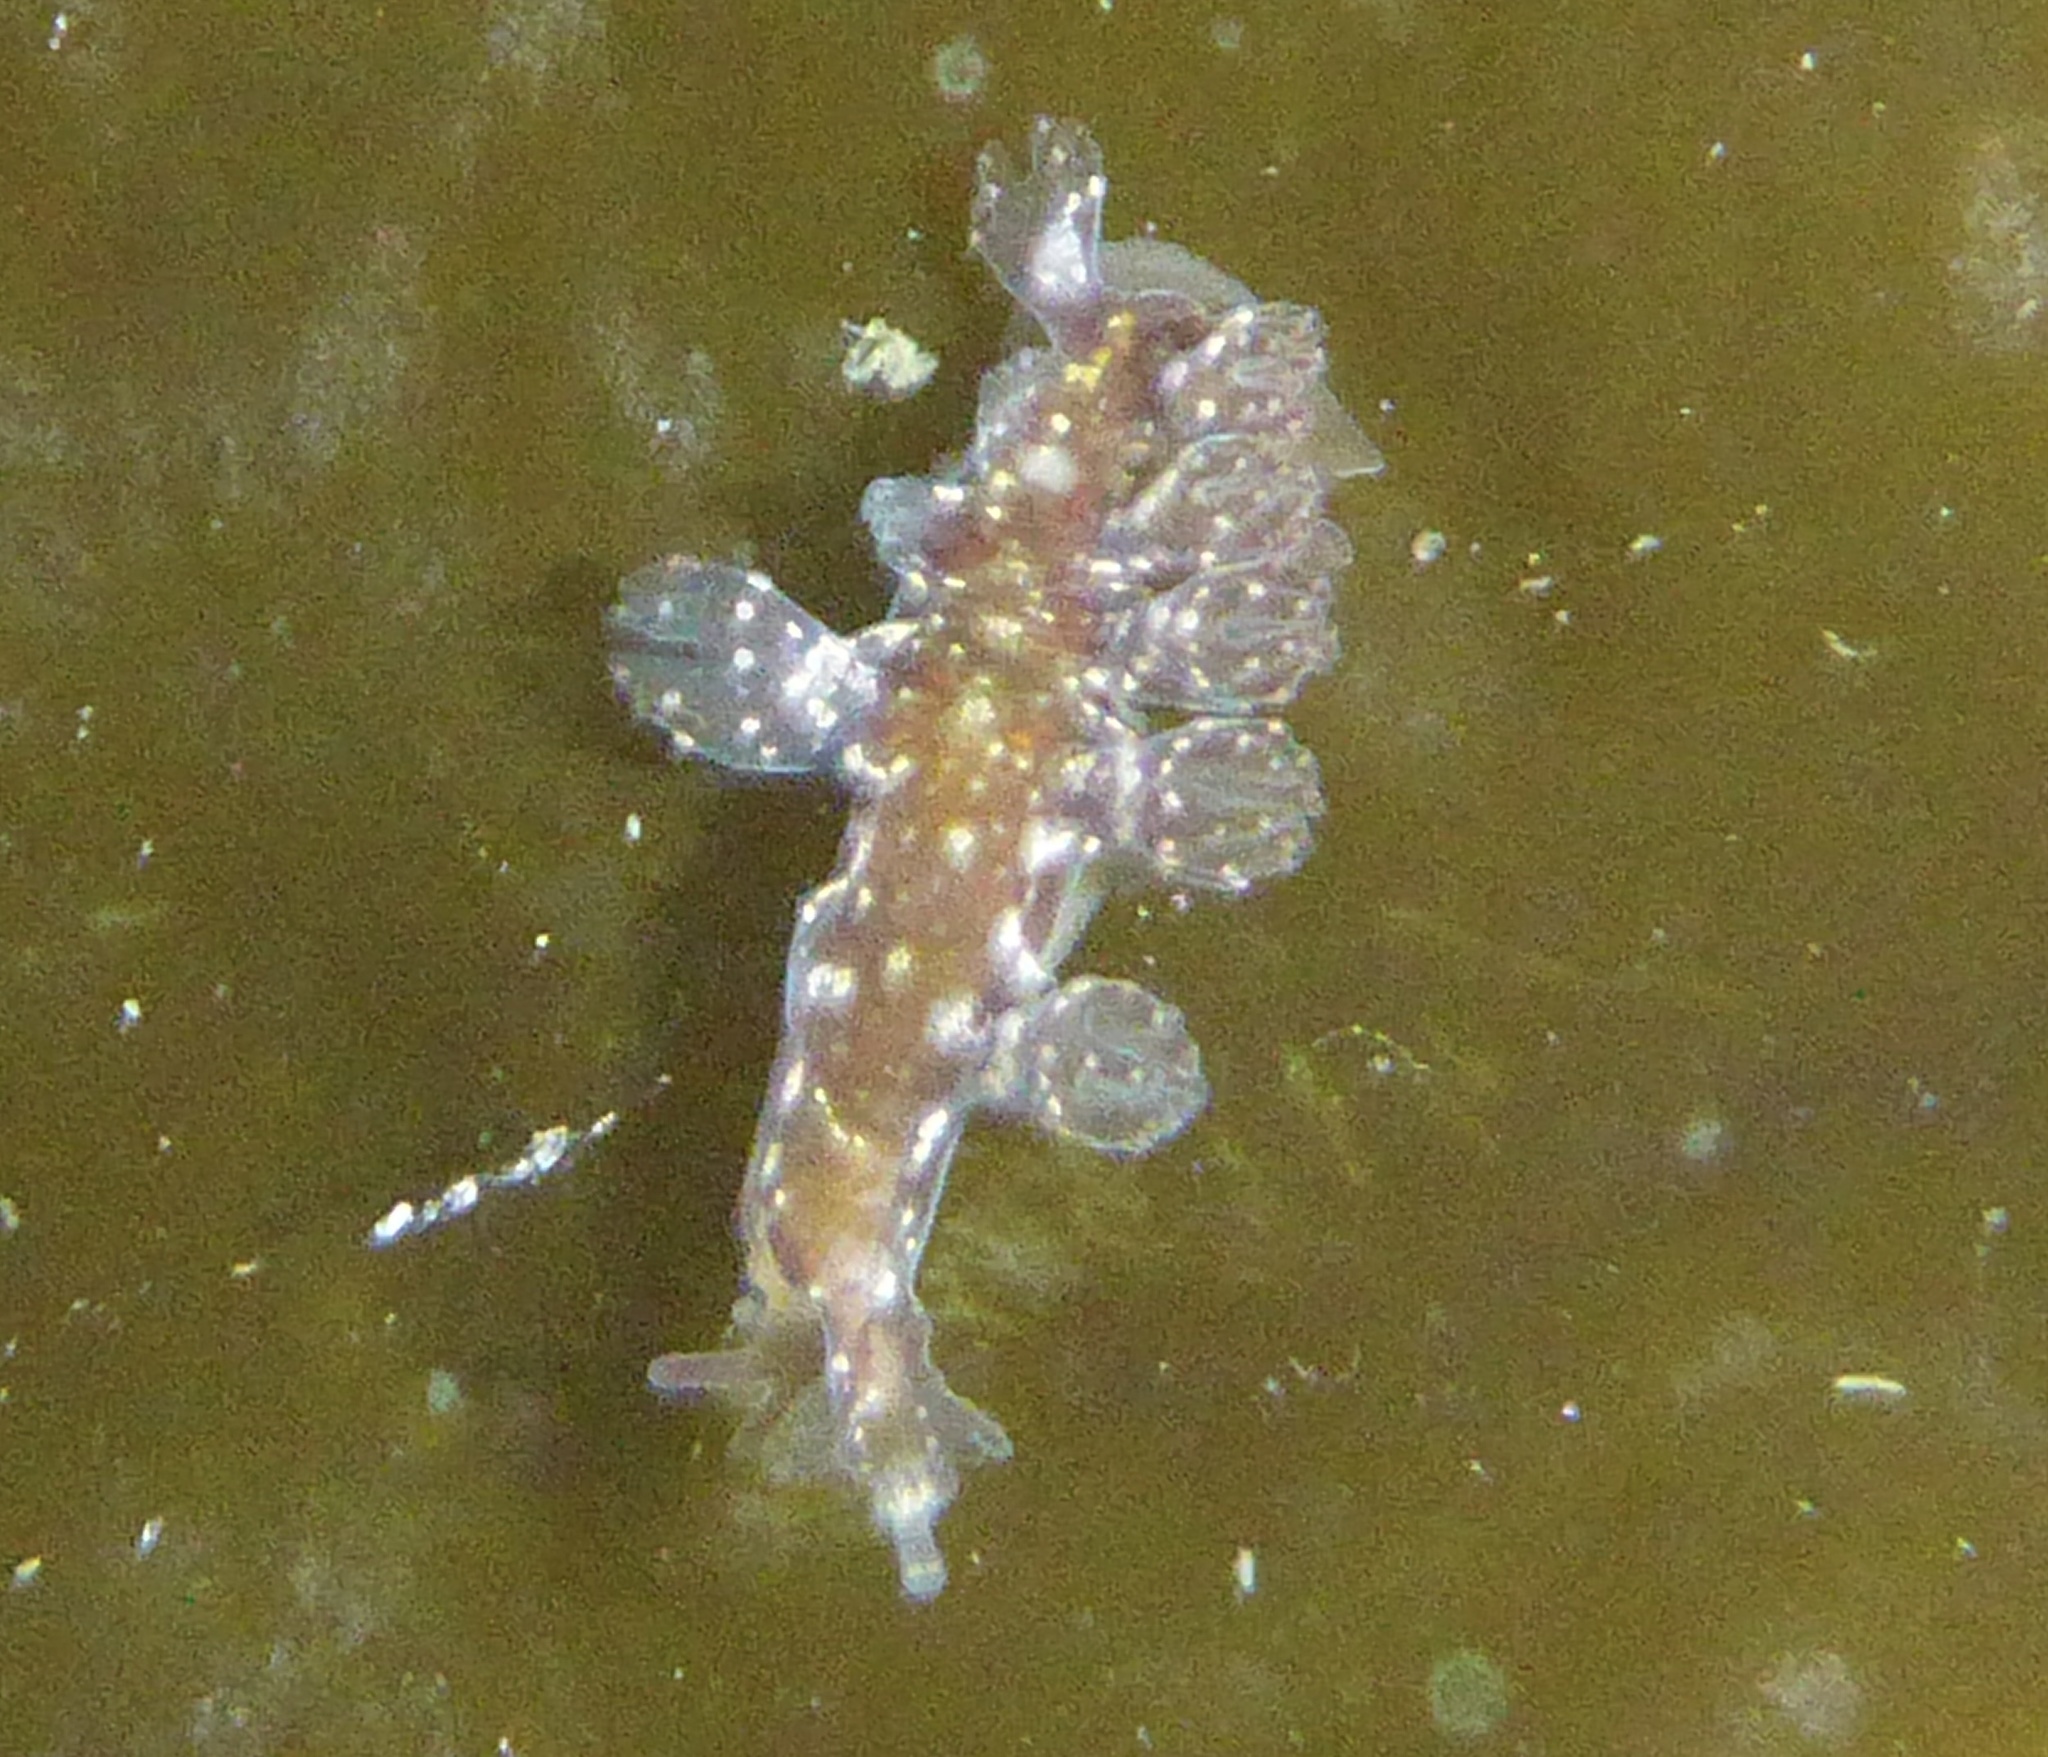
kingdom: Animalia
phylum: Mollusca
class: Gastropoda
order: Nudibranchia
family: Hancockiidae
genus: Hancockia
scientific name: Hancockia californica
